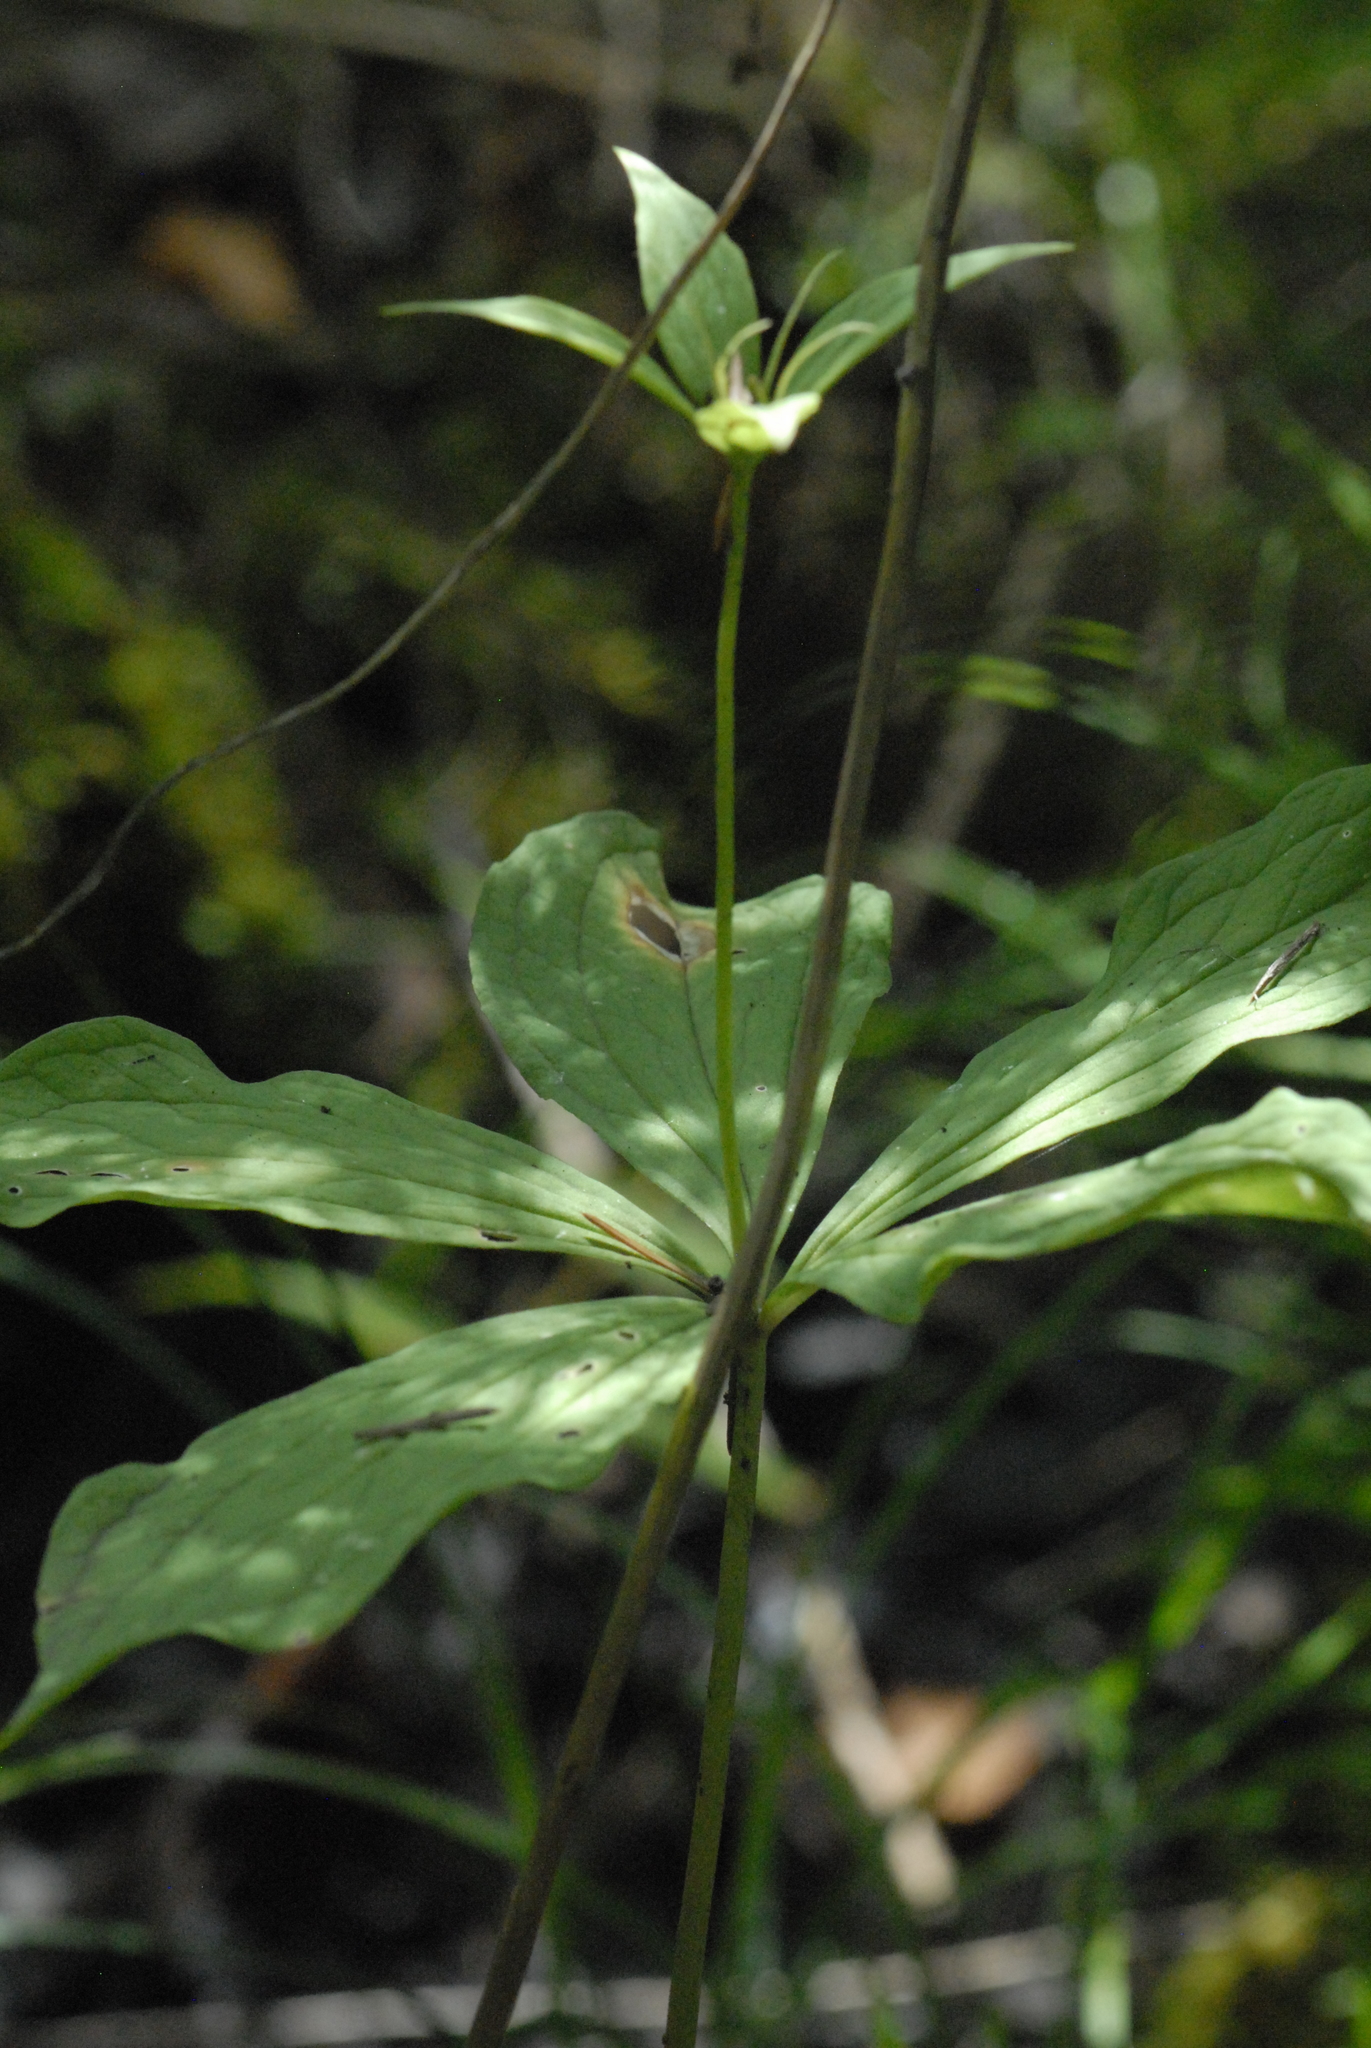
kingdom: Plantae
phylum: Tracheophyta
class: Liliopsida
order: Liliales
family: Melanthiaceae
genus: Paris
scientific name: Paris quadrifolia
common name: Herb-paris
